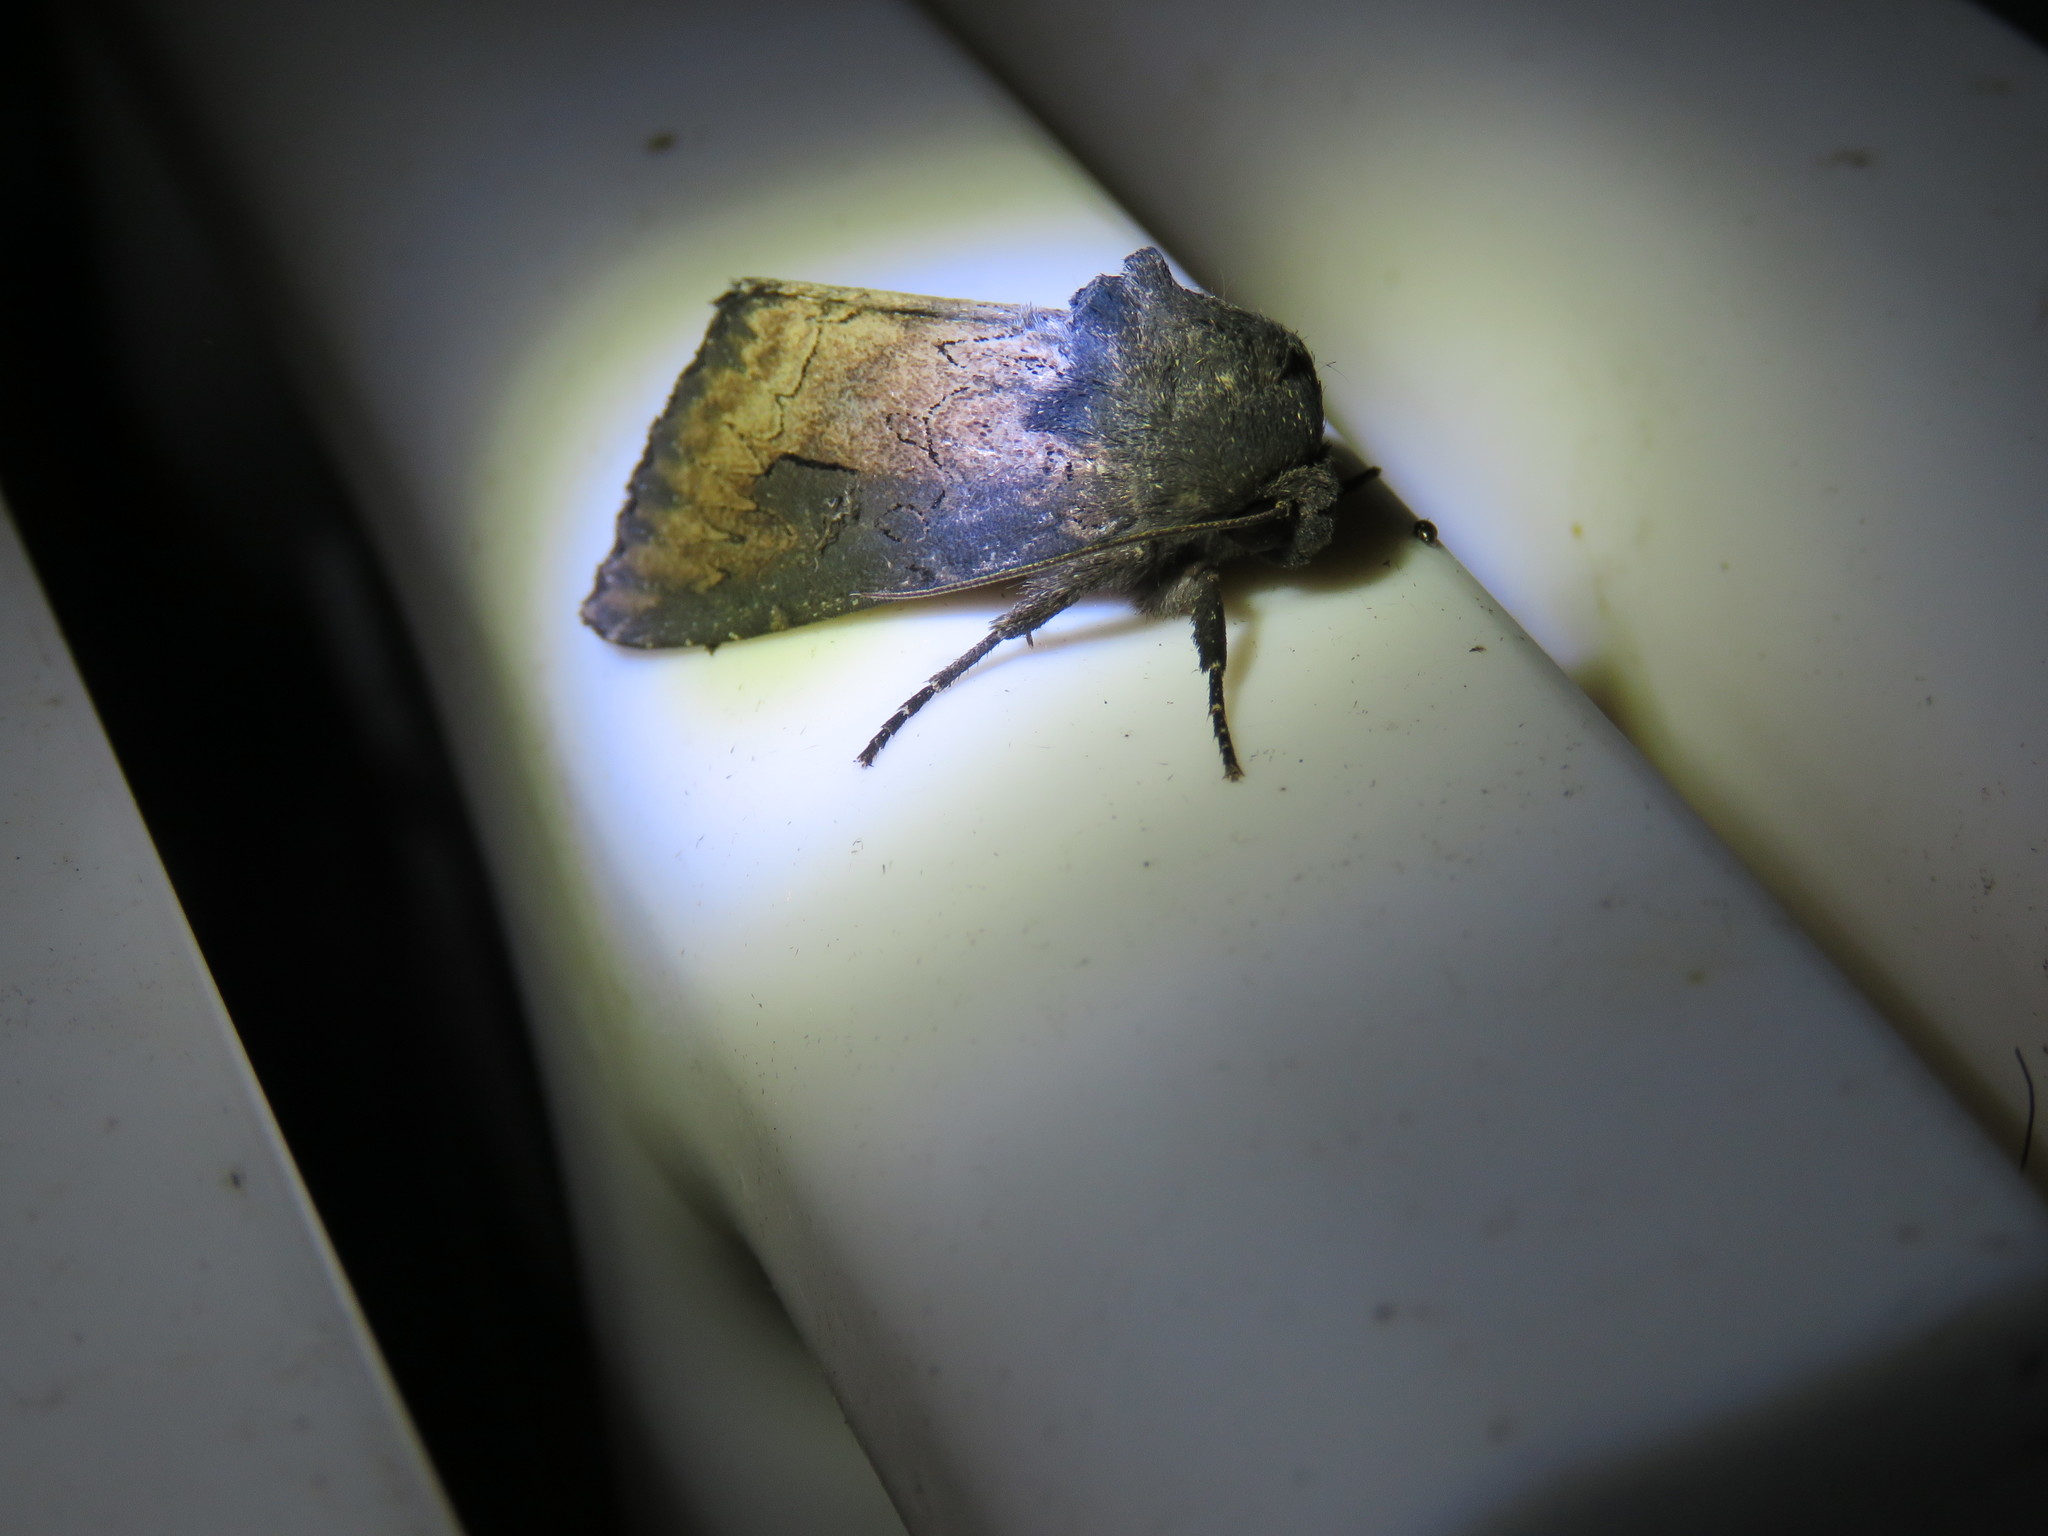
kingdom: Animalia
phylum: Arthropoda
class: Insecta
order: Lepidoptera
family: Noctuidae
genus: Macronoctua
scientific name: Macronoctua onusta
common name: Iris borer
